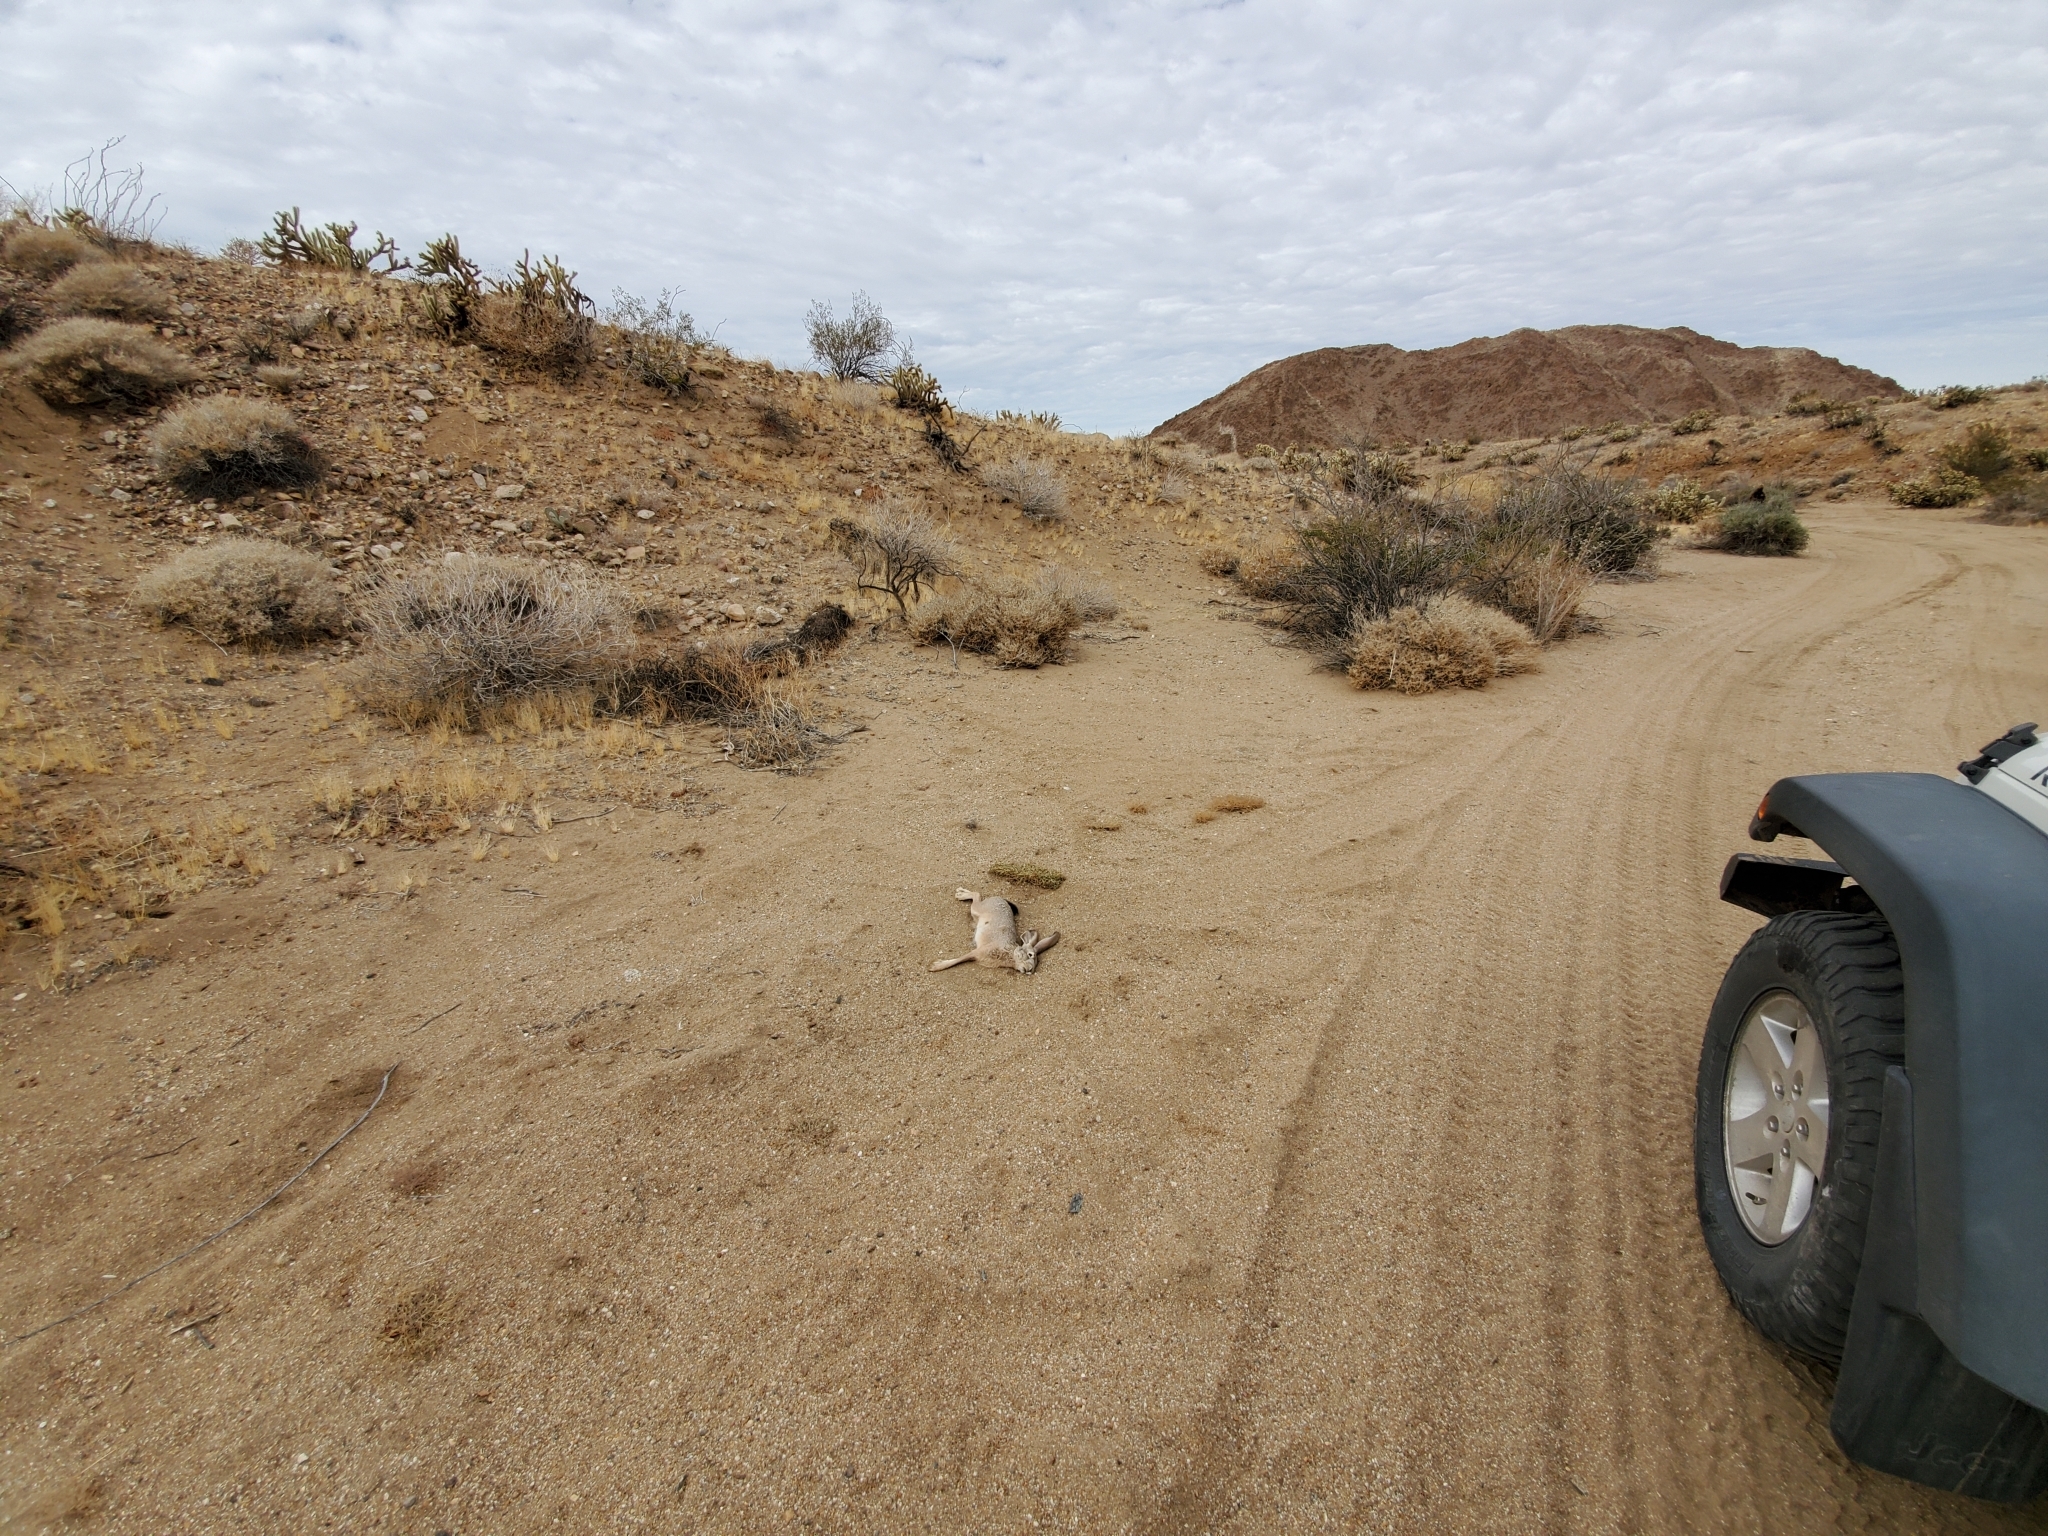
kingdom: Animalia
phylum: Chordata
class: Mammalia
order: Lagomorpha
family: Leporidae
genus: Lepus
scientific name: Lepus californicus
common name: Black-tailed jackrabbit
